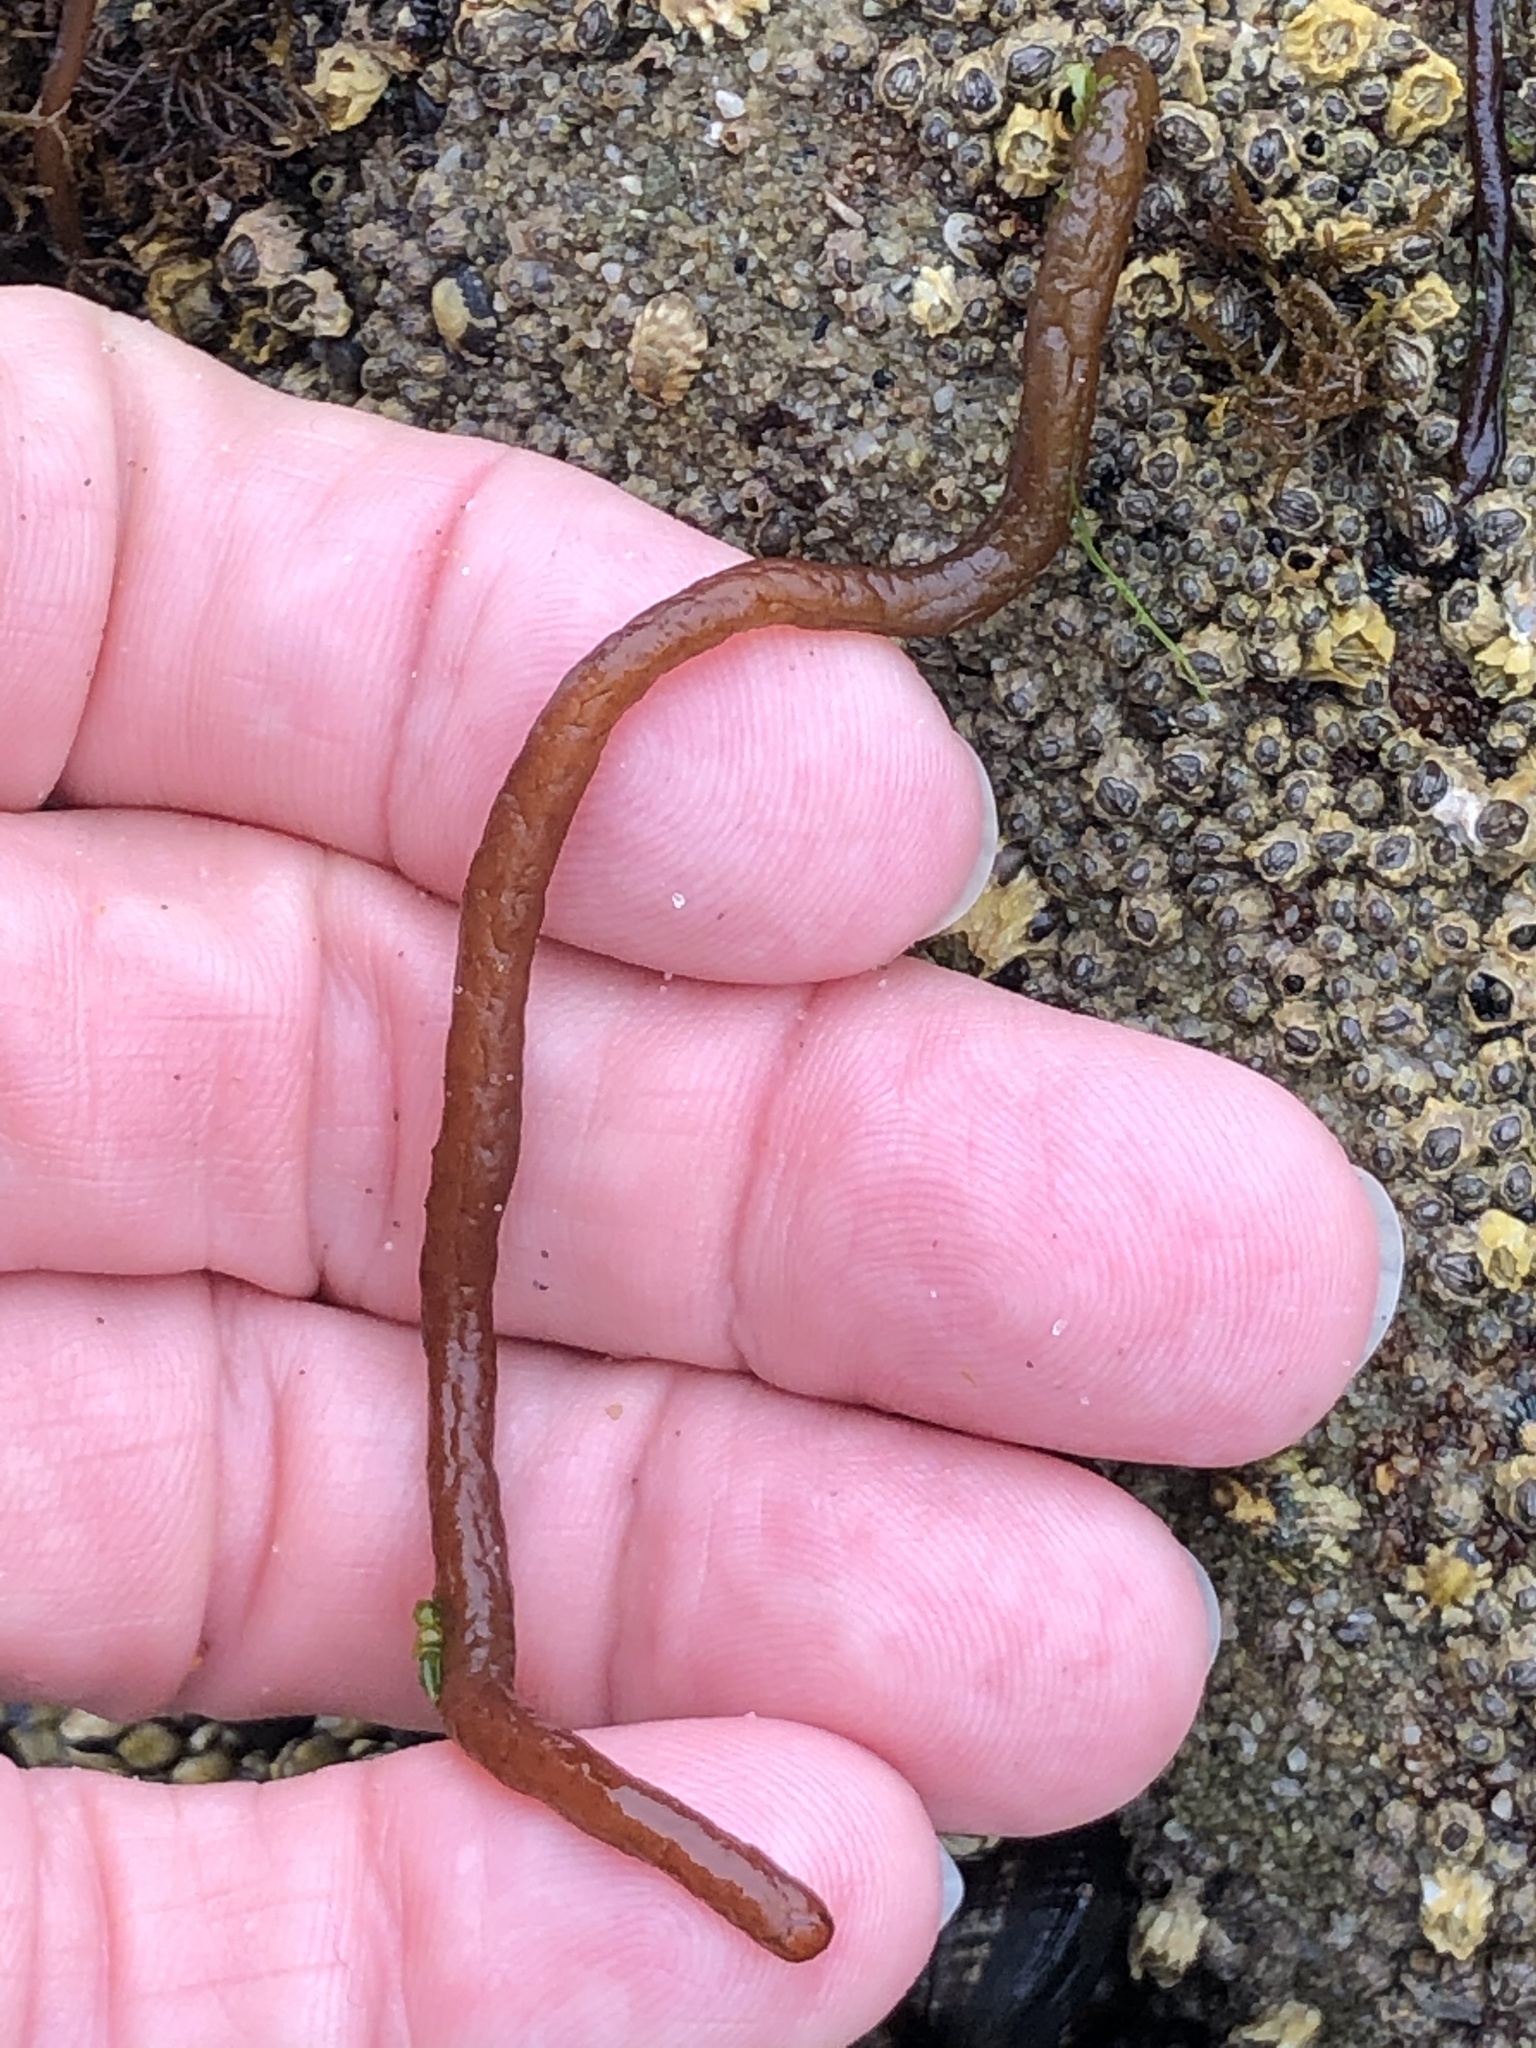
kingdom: Plantae
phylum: Rhodophyta
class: Florideophyceae
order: Nemaliales
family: Nemaliaceae
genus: Nemalion
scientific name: Nemalion elminthoides
